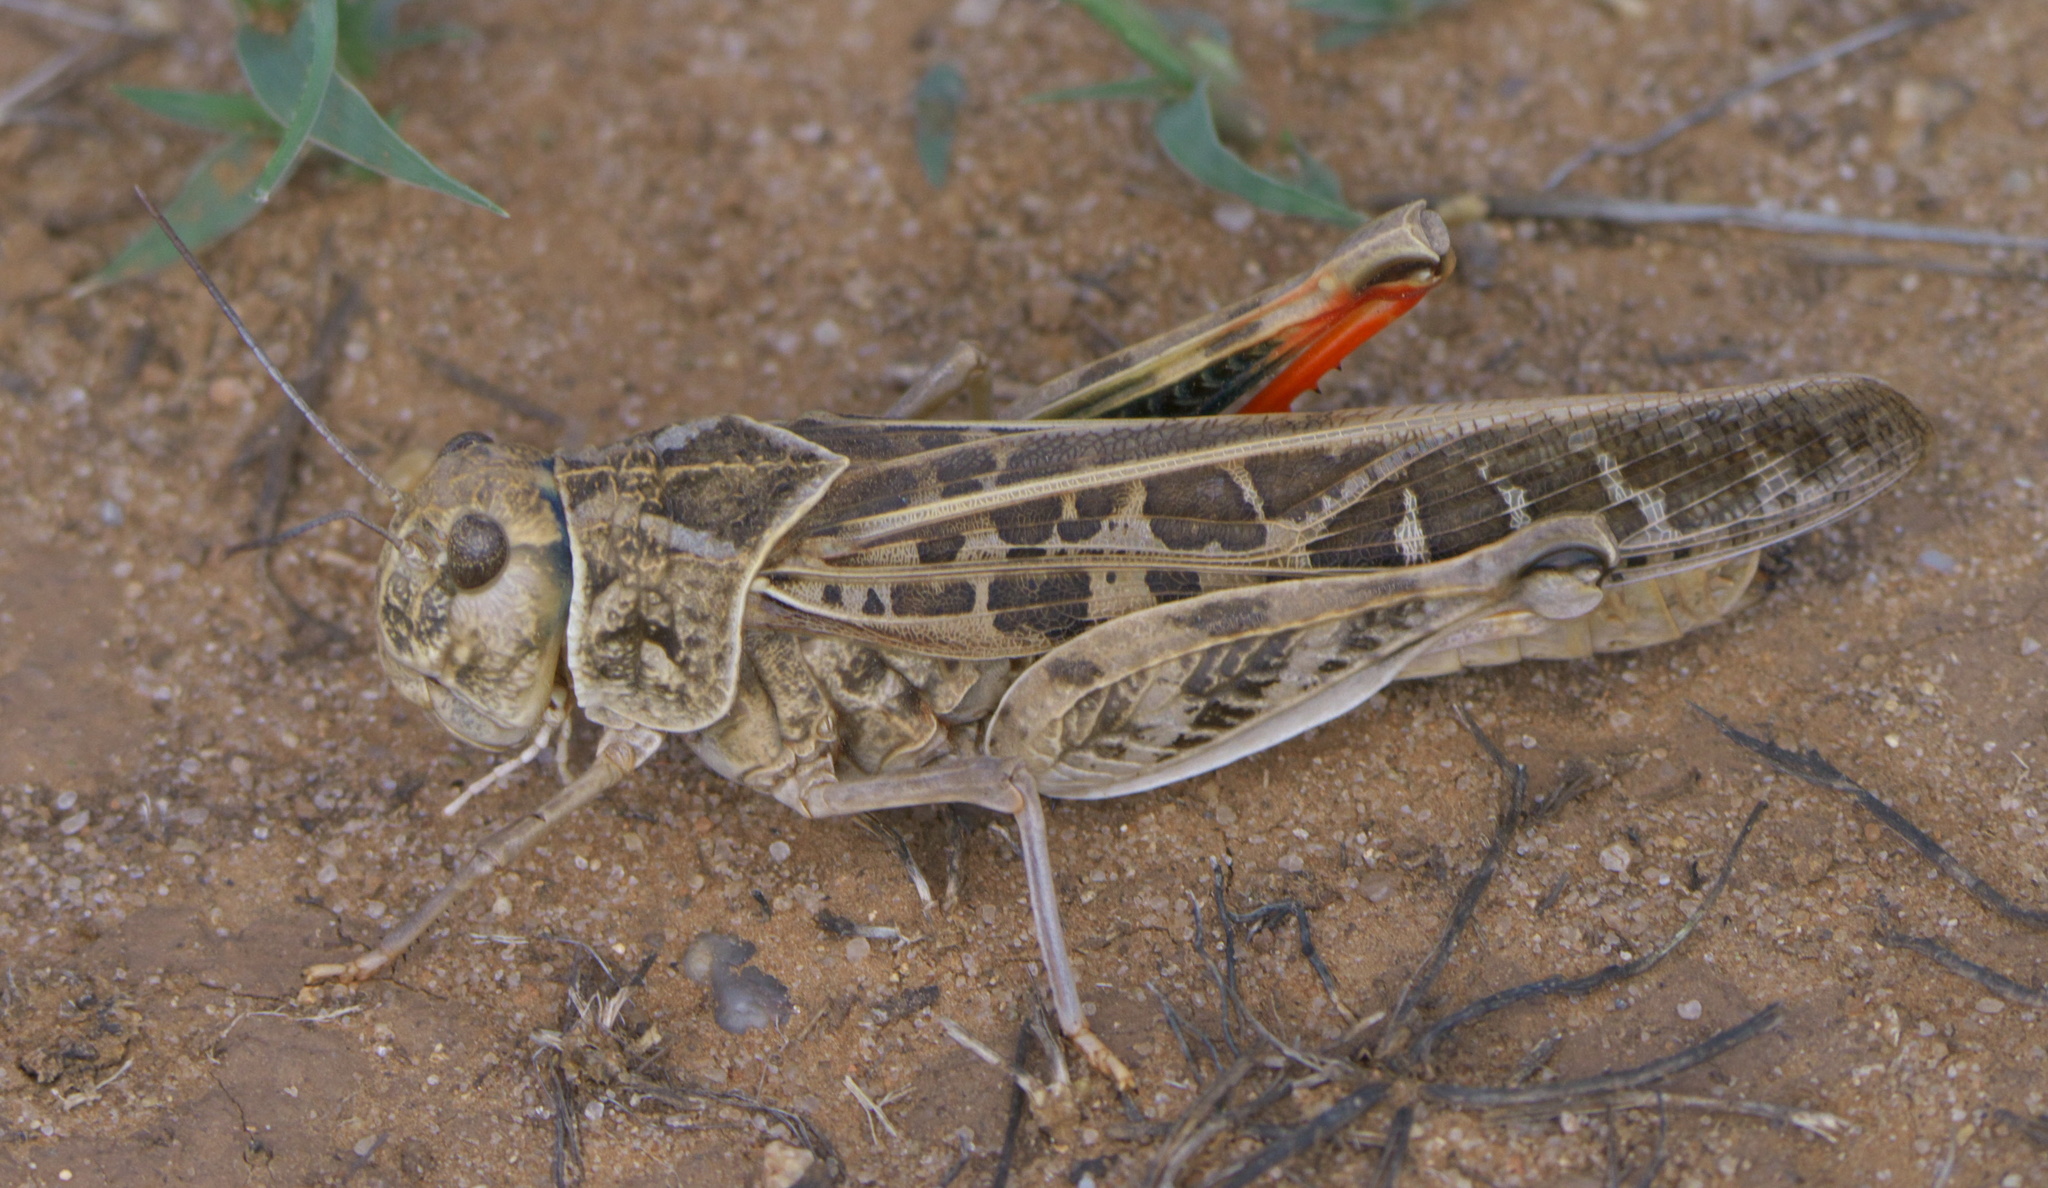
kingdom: Animalia
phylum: Arthropoda
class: Insecta
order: Orthoptera
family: Acrididae
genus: Xanthippus
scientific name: Xanthippus corallipes
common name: Redshanked grasshopper
